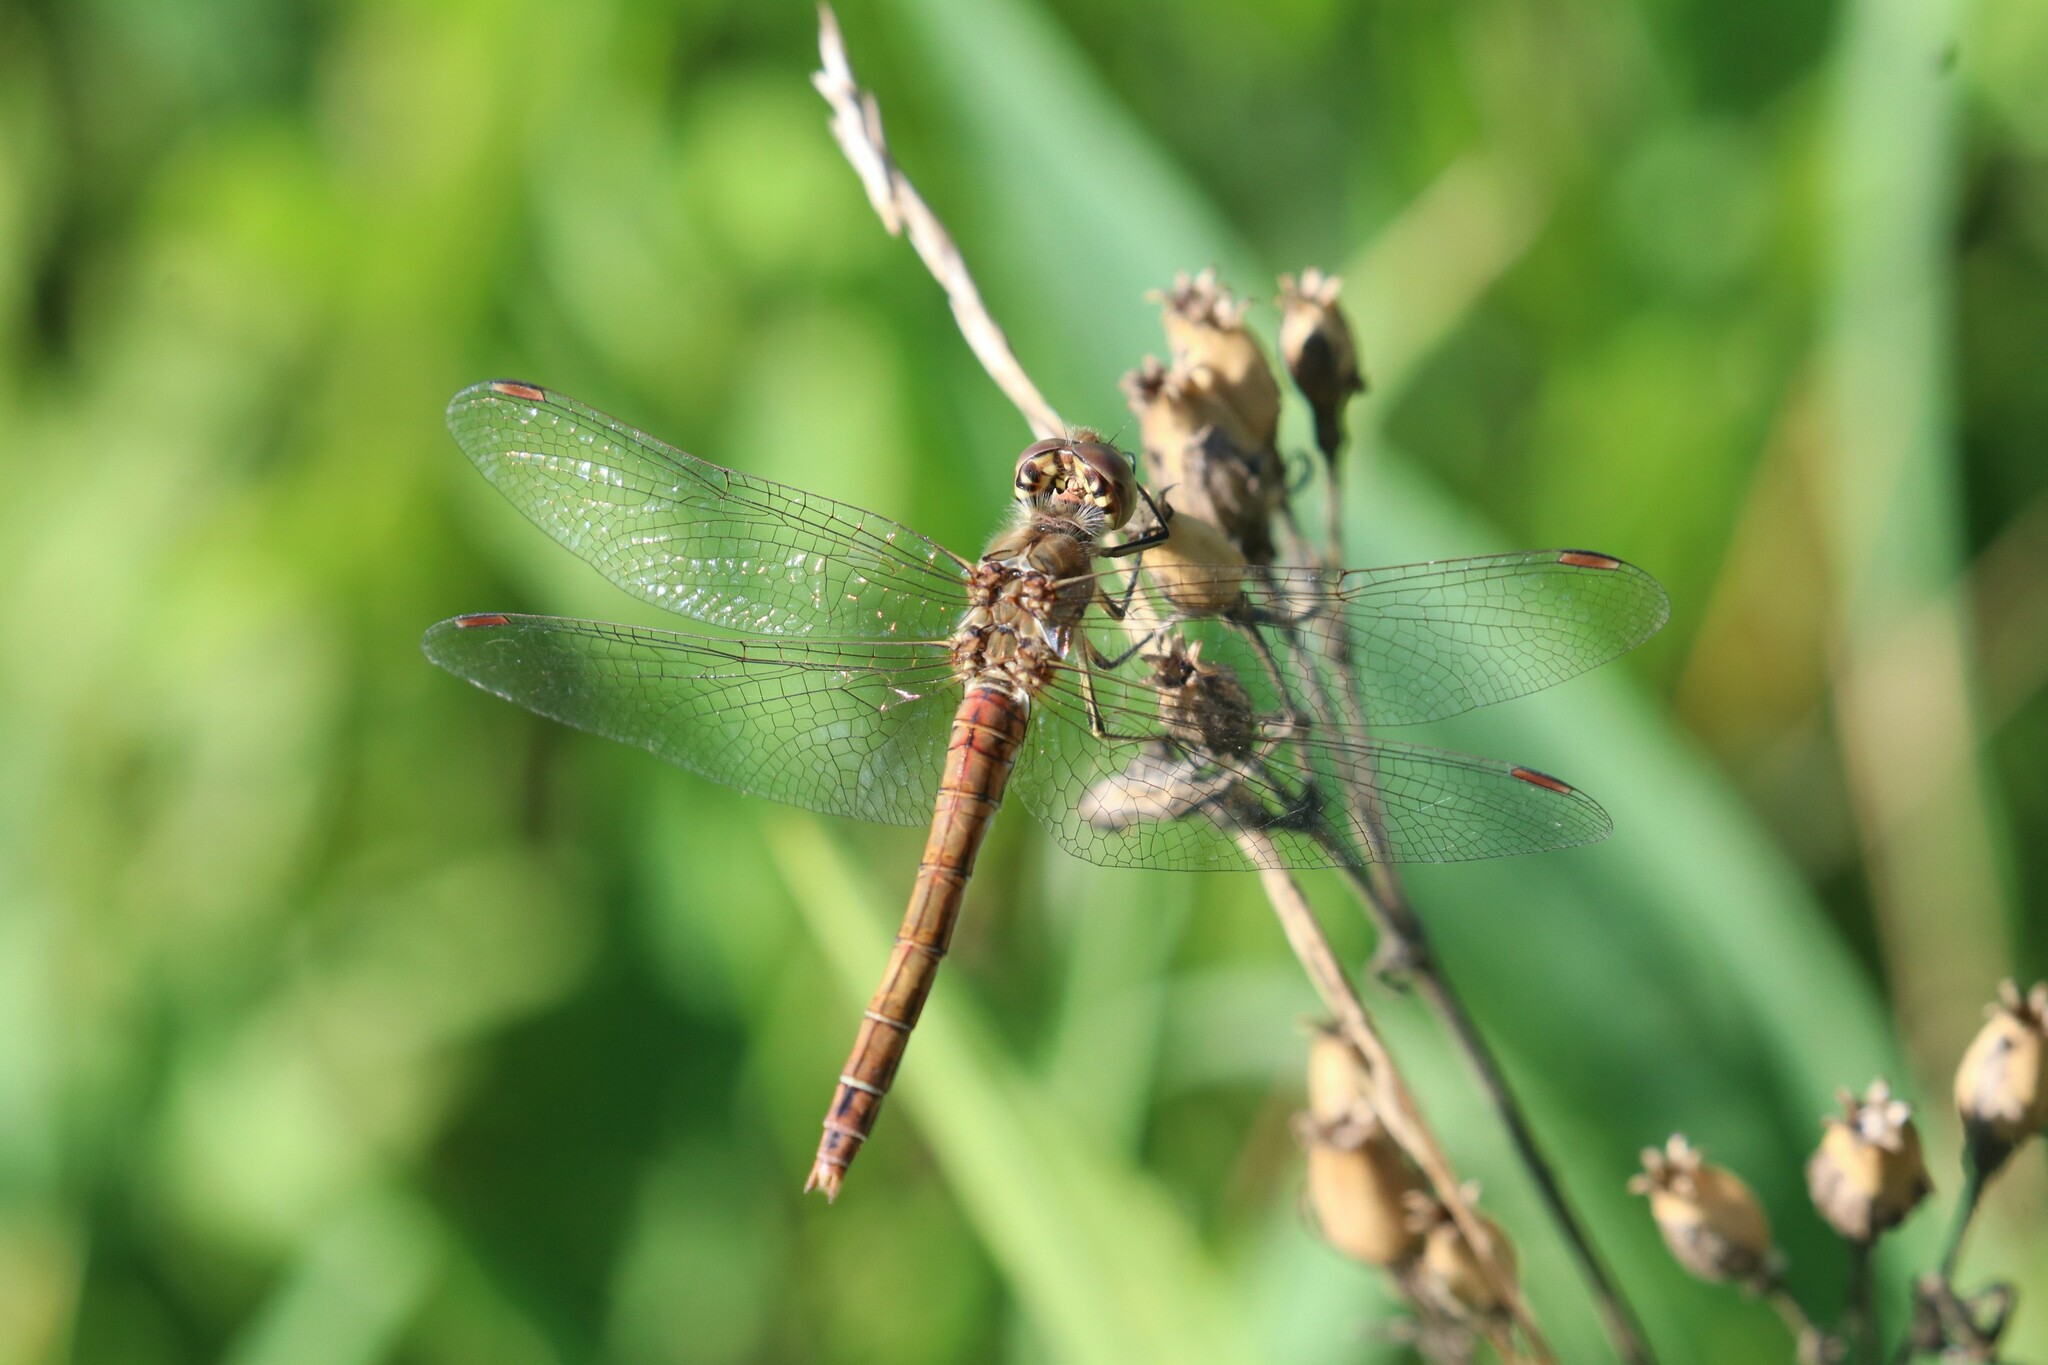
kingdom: Animalia
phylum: Arthropoda
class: Insecta
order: Odonata
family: Libellulidae
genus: Sympetrum
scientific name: Sympetrum vulgatum
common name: Vagrant darter
